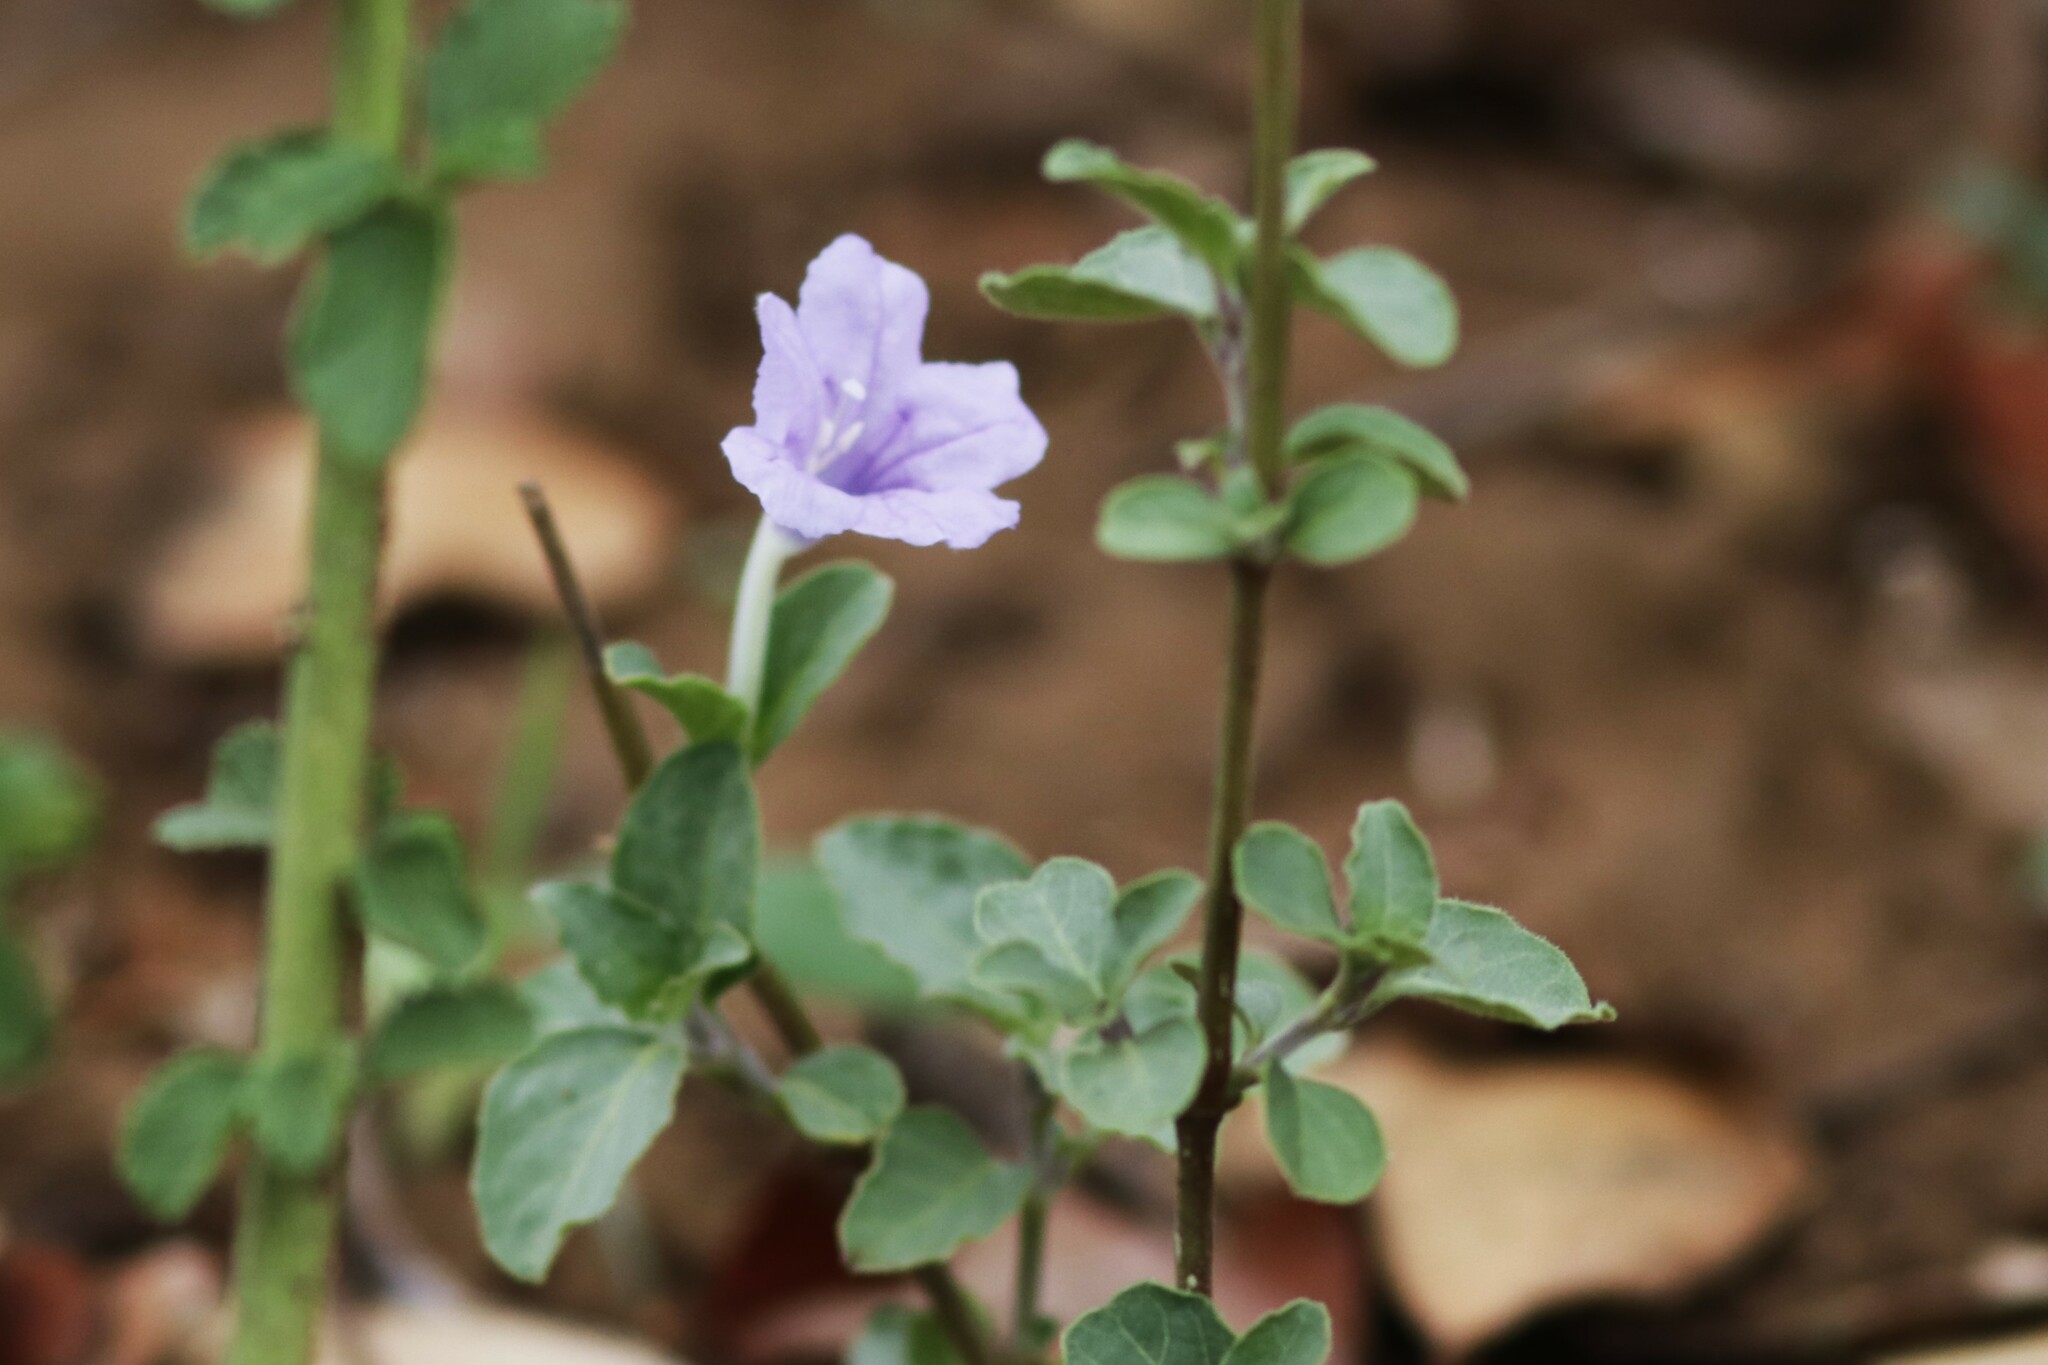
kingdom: Plantae
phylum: Tracheophyta
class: Magnoliopsida
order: Lamiales
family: Acanthaceae
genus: Ruellia
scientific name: Ruellia cordata
